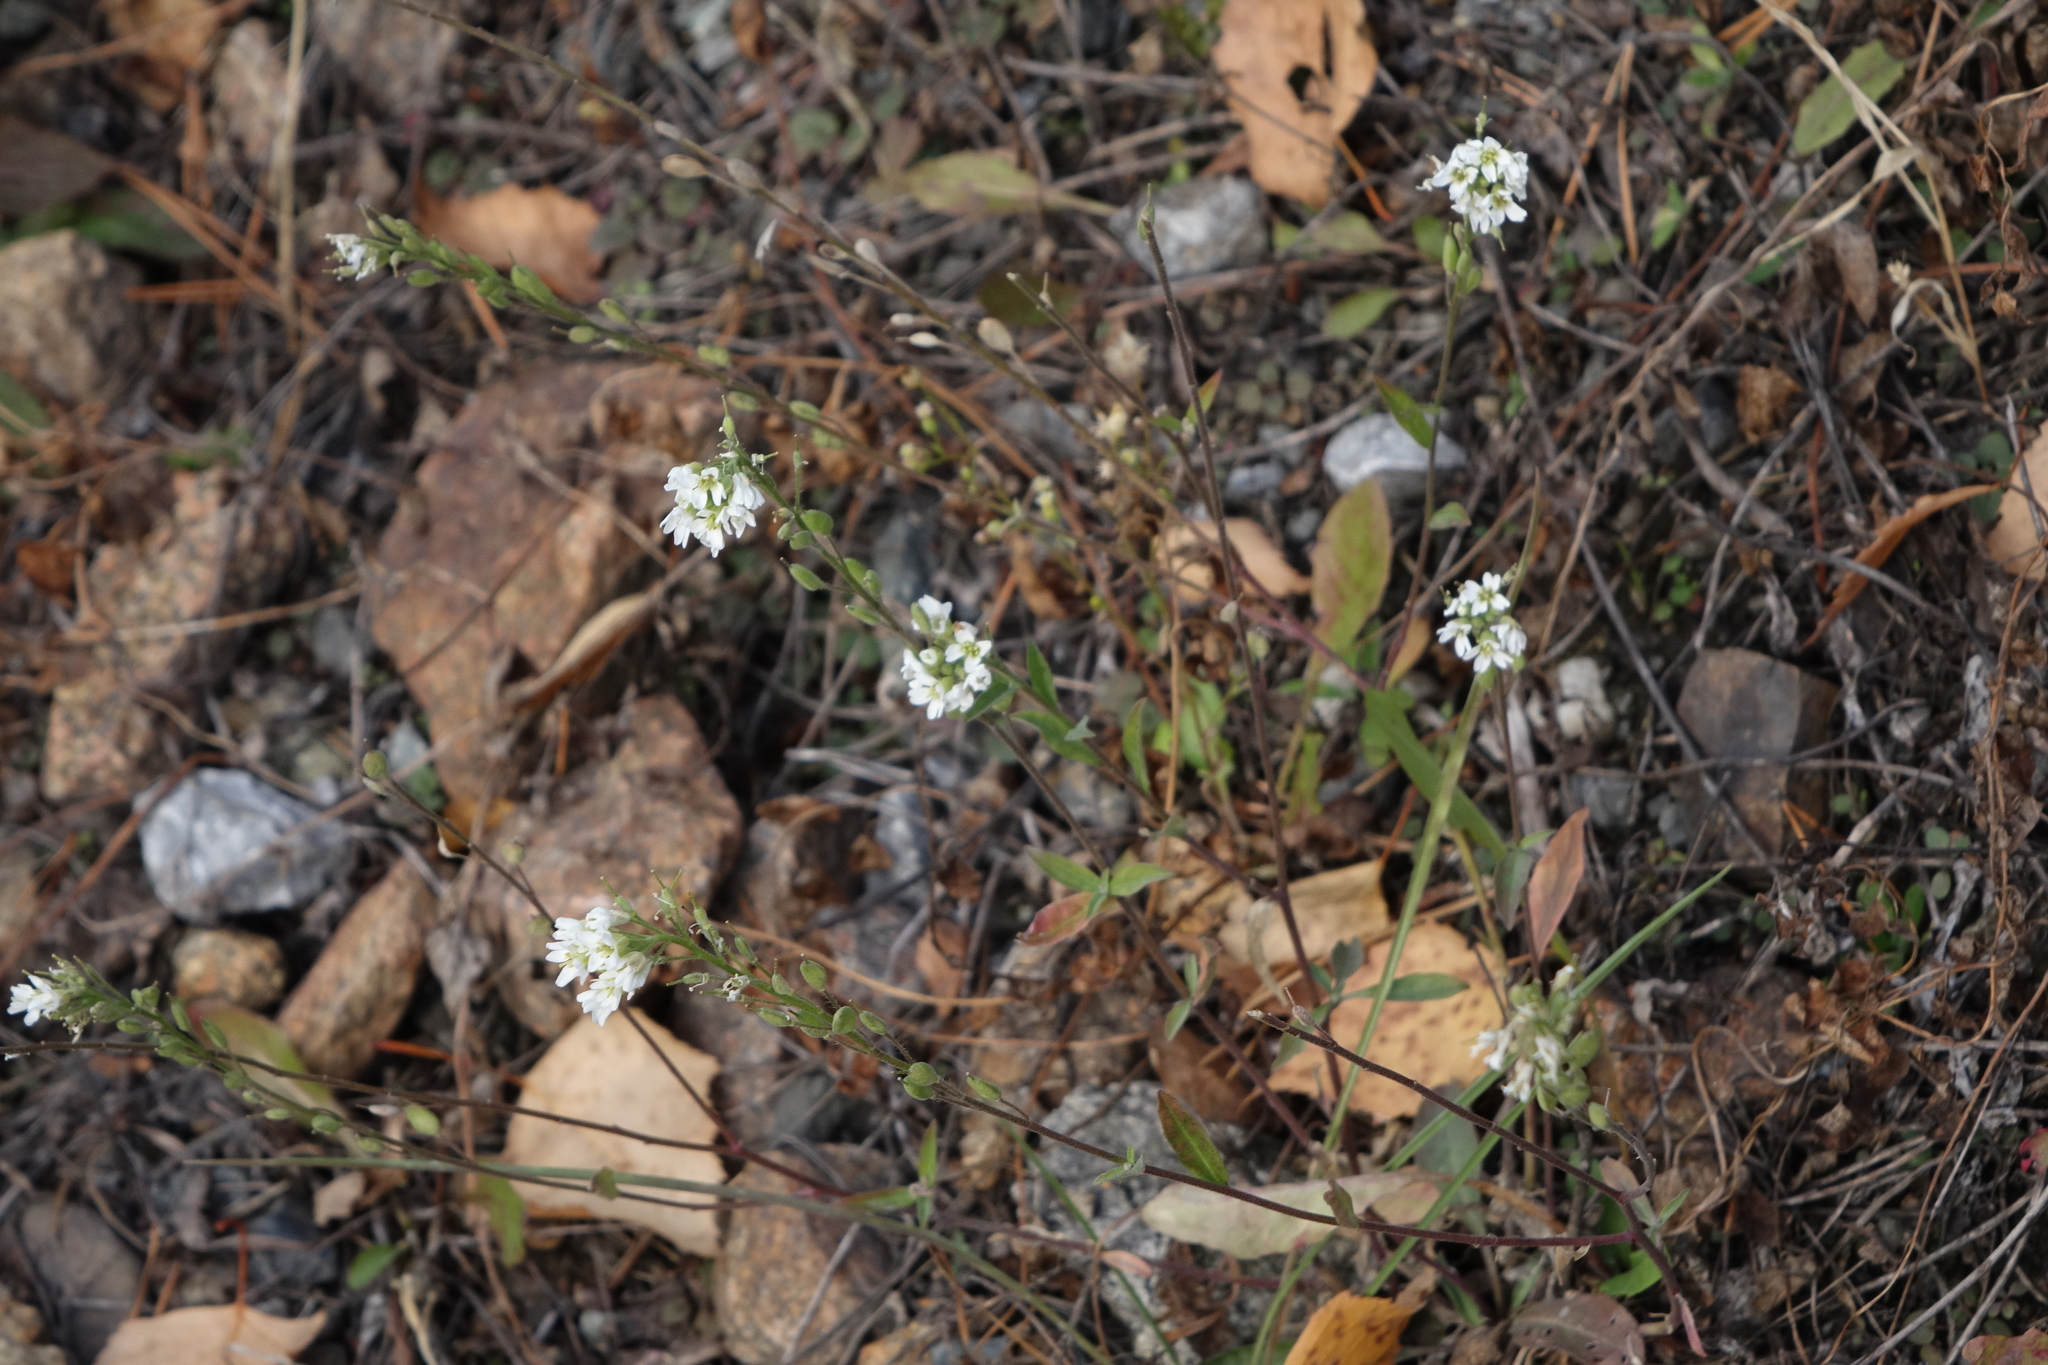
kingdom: Plantae
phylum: Tracheophyta
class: Magnoliopsida
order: Brassicales
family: Brassicaceae
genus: Berteroa
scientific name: Berteroa incana
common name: Hoary alison
